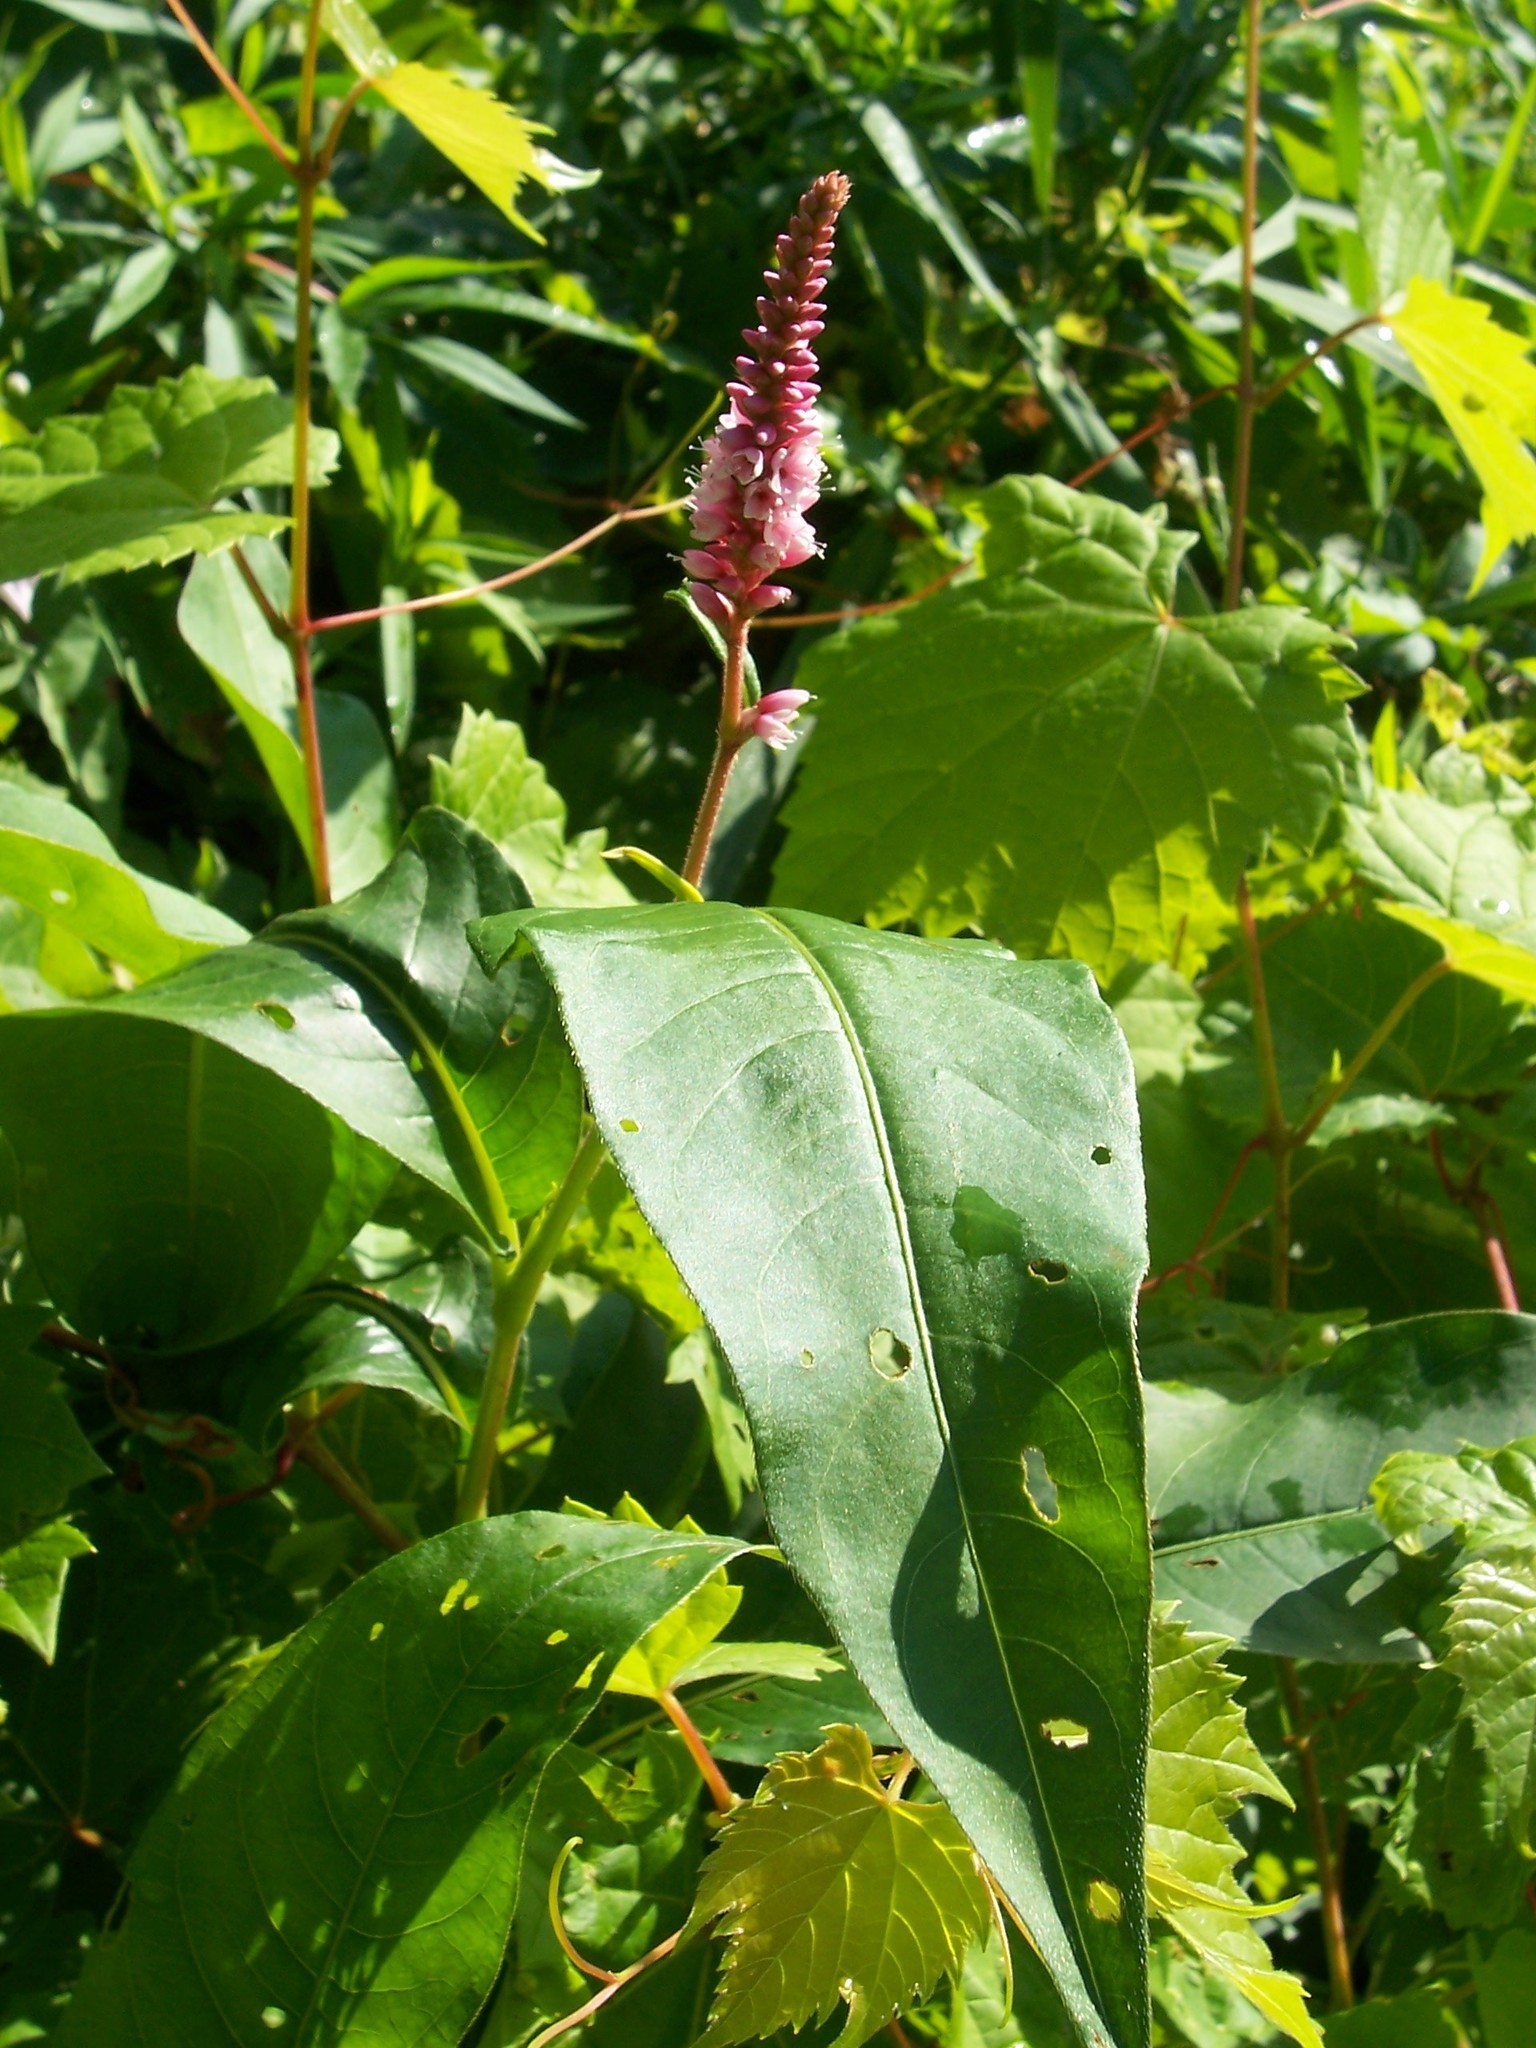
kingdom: Plantae
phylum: Tracheophyta
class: Magnoliopsida
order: Caryophyllales
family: Polygonaceae
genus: Persicaria
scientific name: Persicaria amphibia
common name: Amphibious bistort
